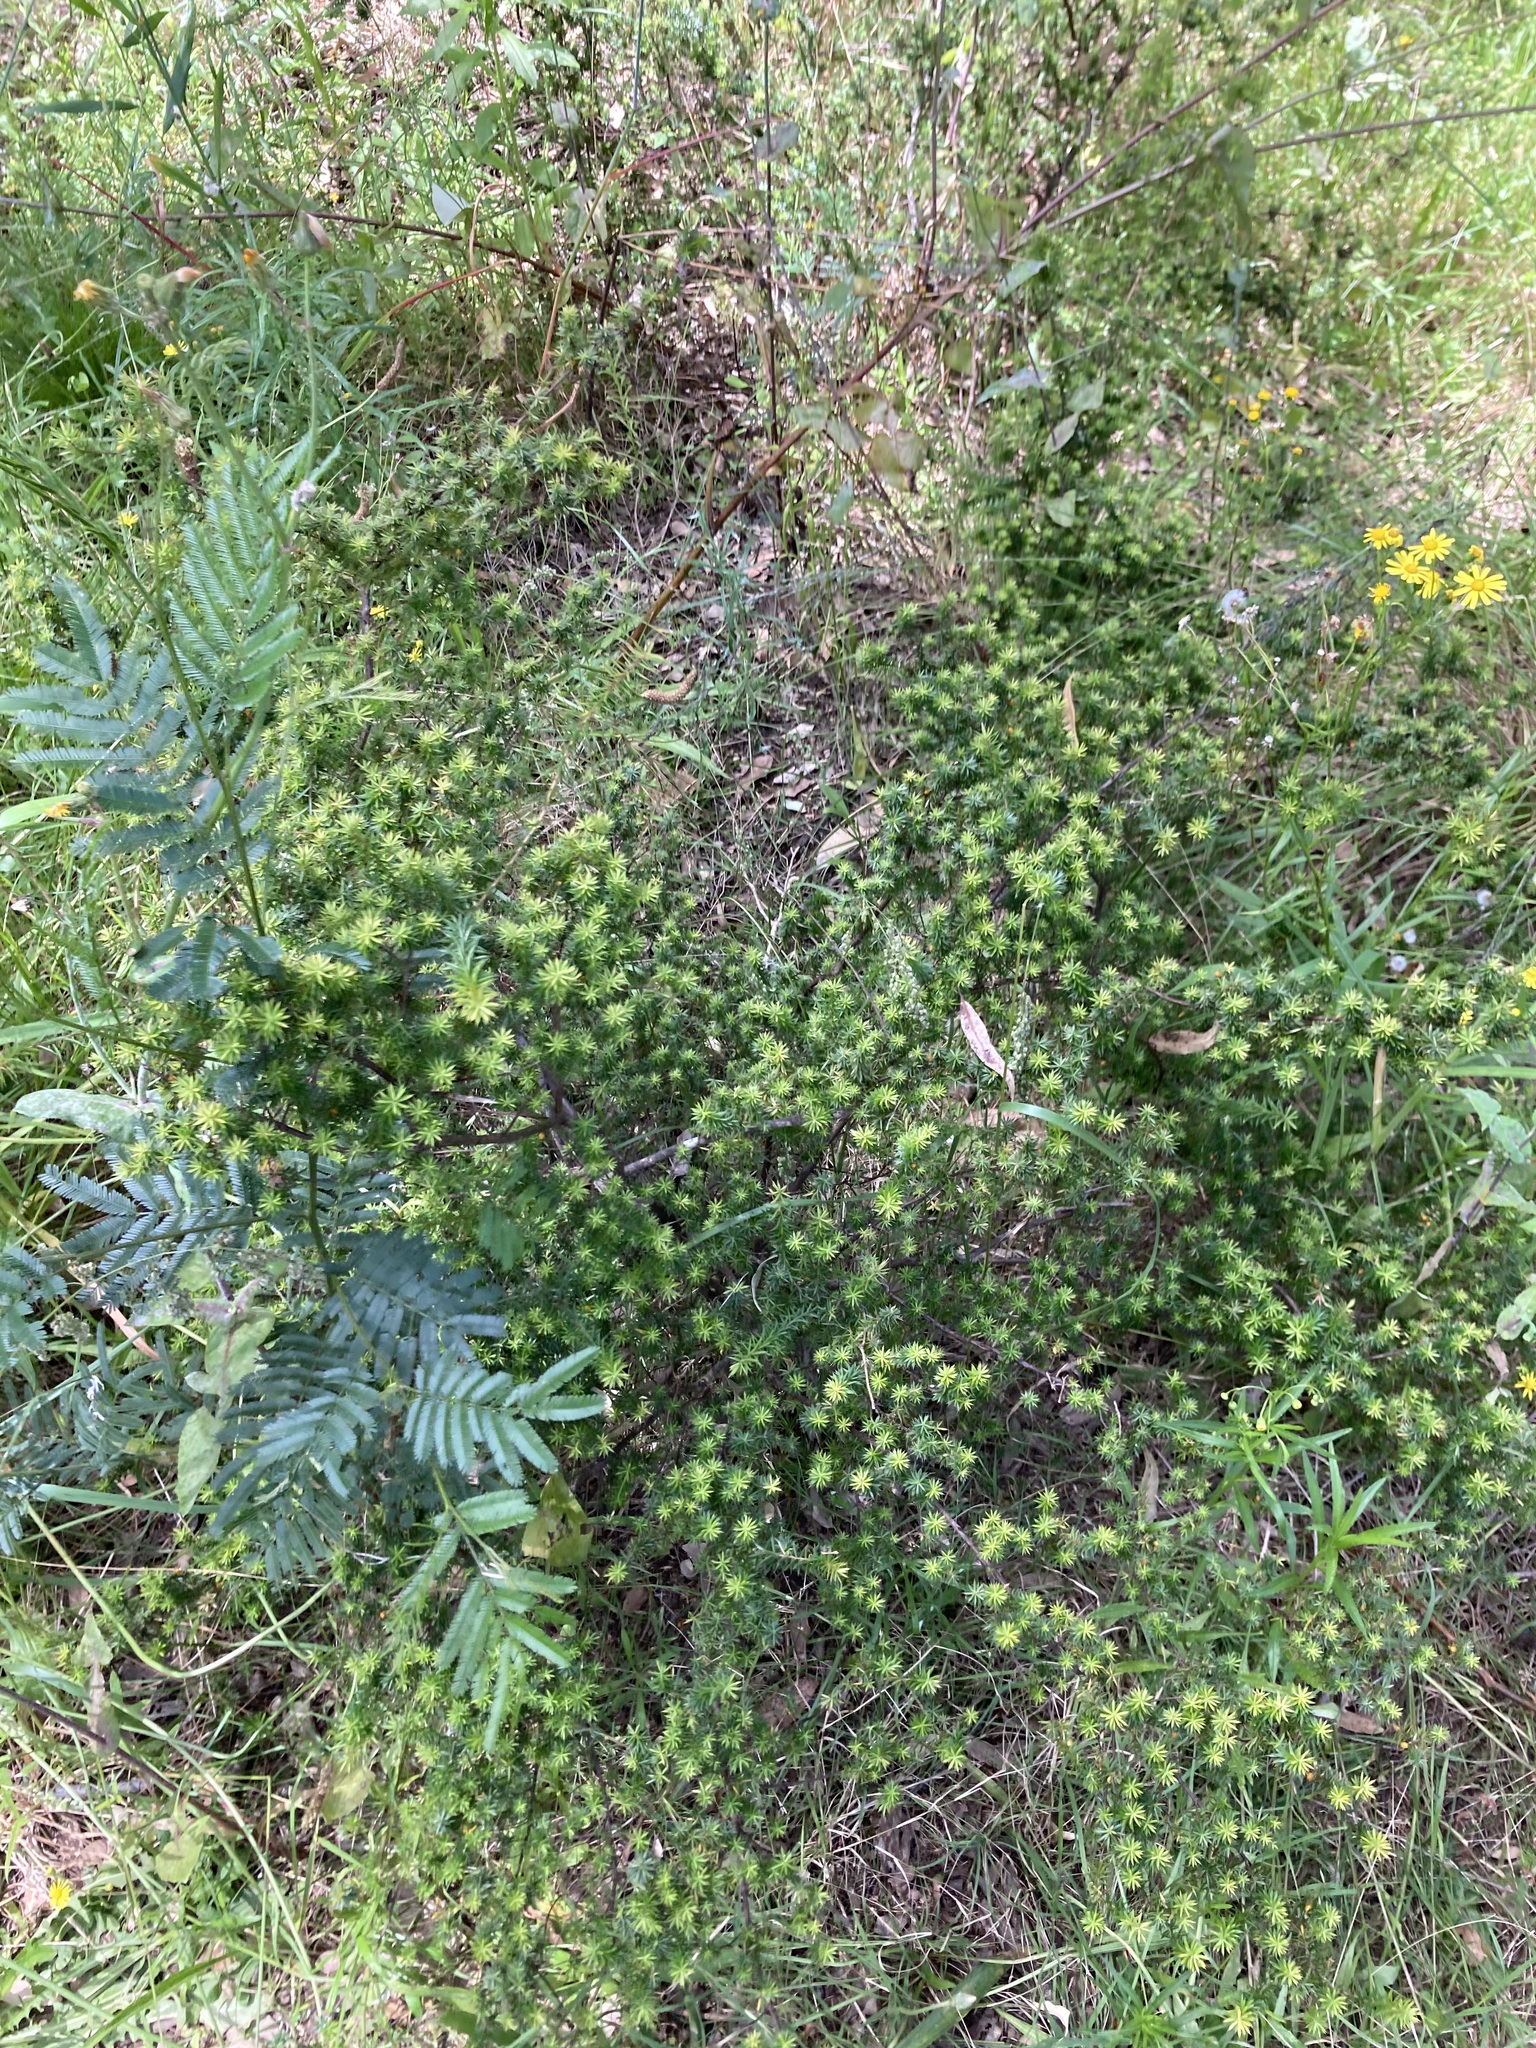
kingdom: Plantae
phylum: Tracheophyta
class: Magnoliopsida
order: Ericales
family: Ericaceae
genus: Styphelia
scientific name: Styphelia sieberi
